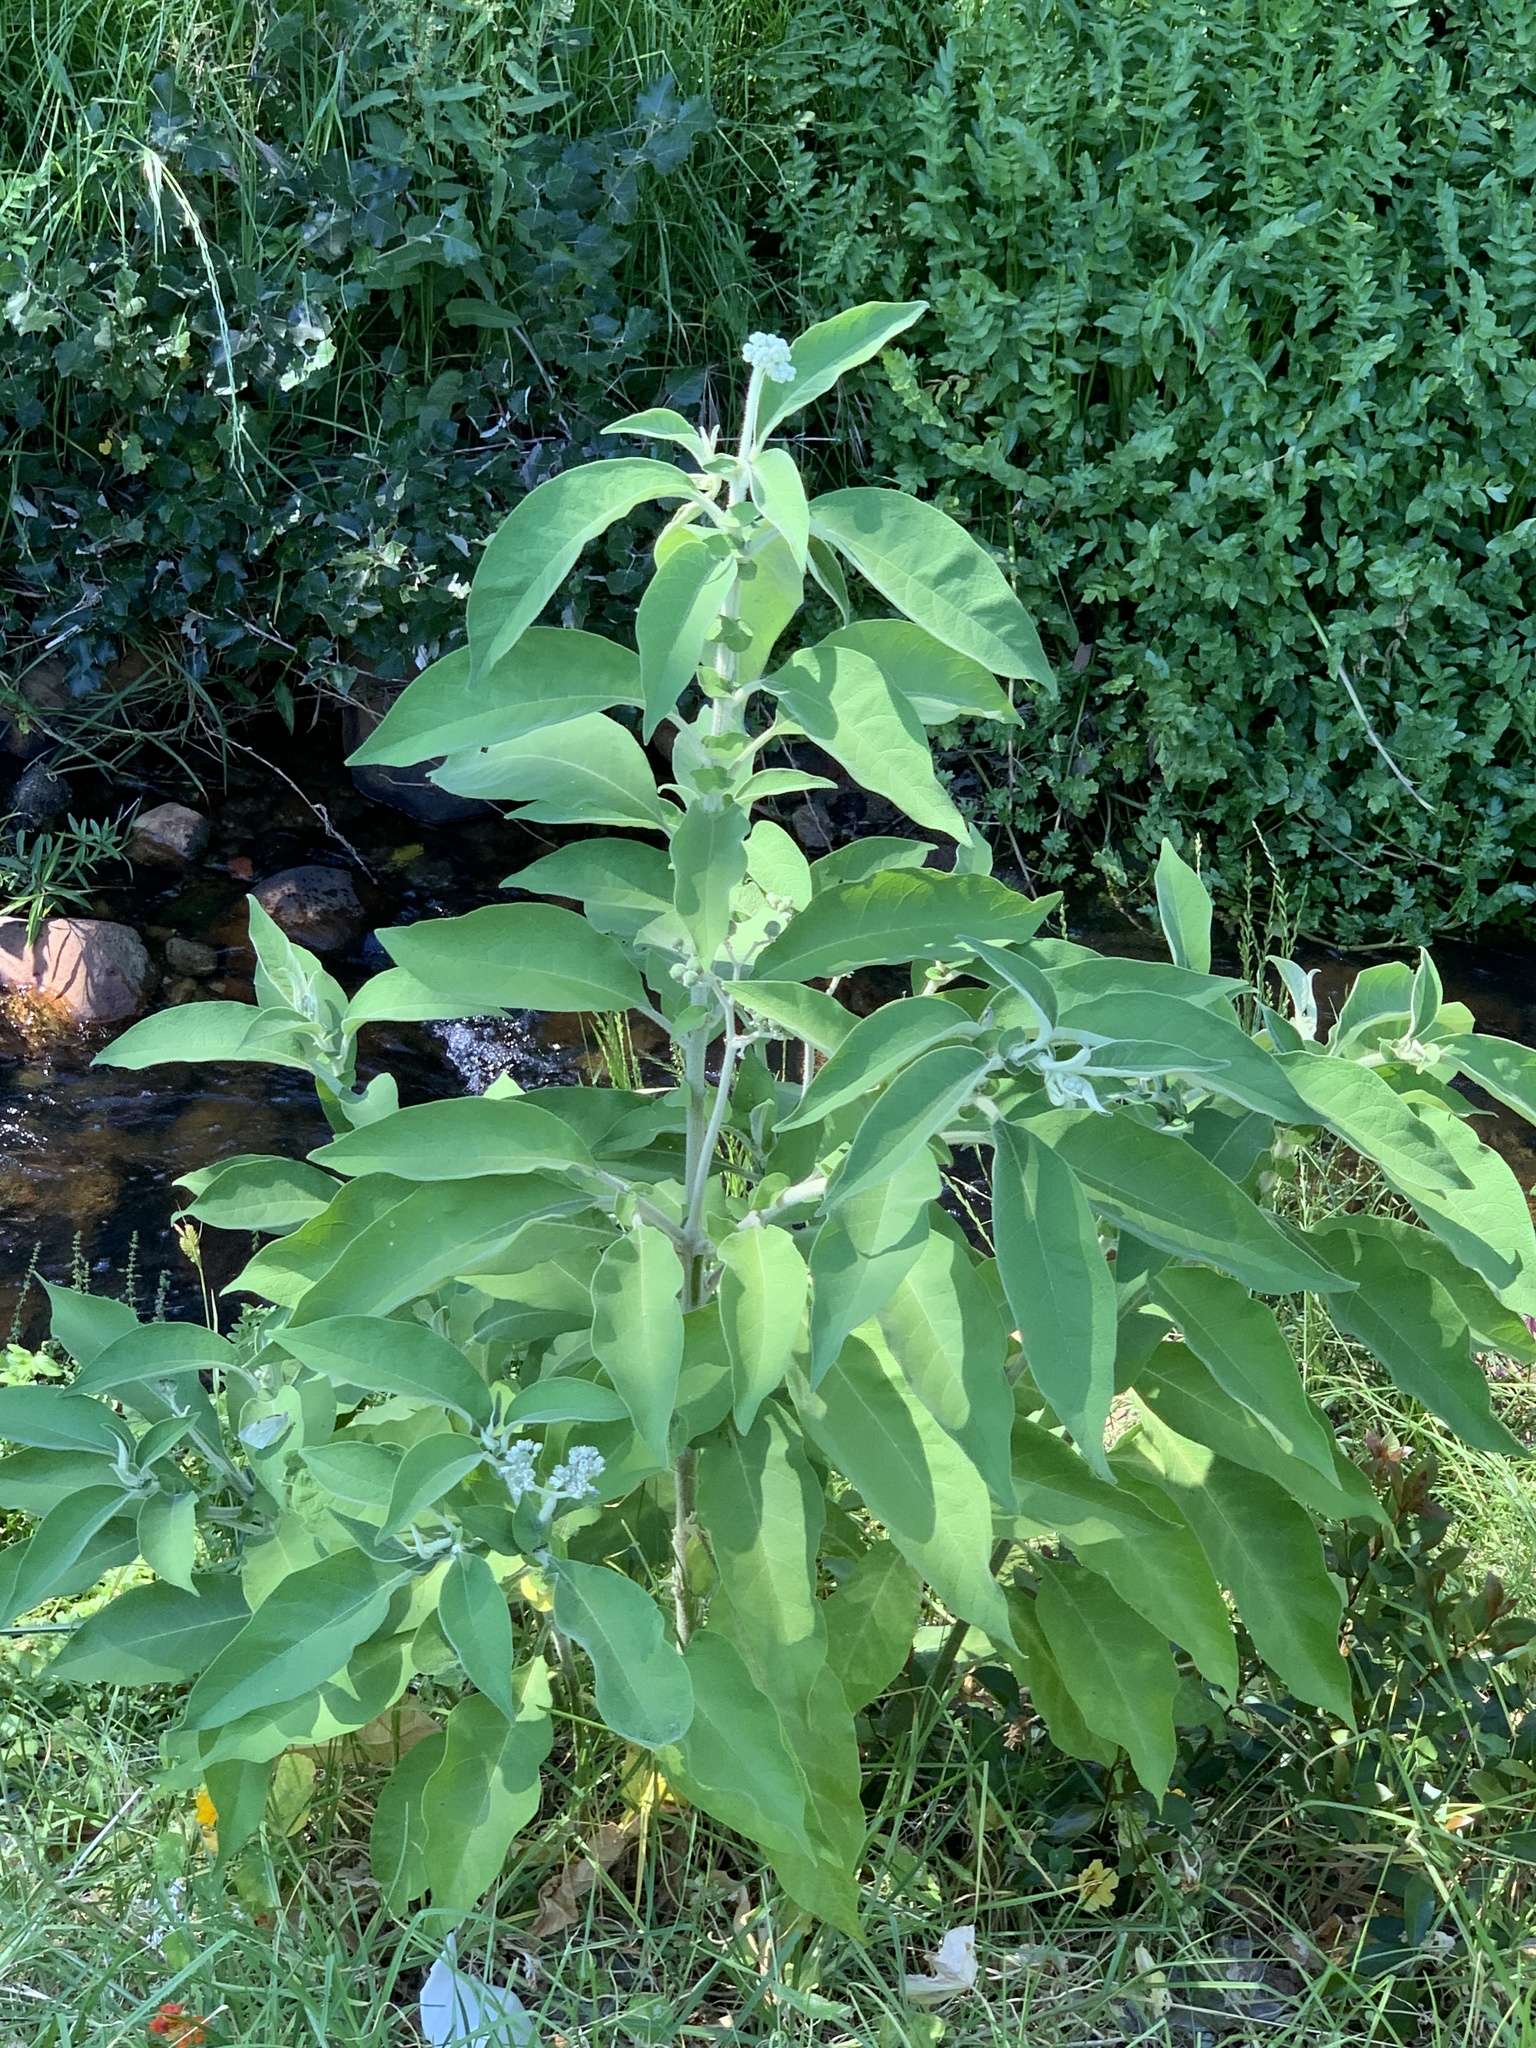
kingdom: Plantae
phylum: Tracheophyta
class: Magnoliopsida
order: Solanales
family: Solanaceae
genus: Solanum
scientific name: Solanum mauritianum
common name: Earleaf nightshade
